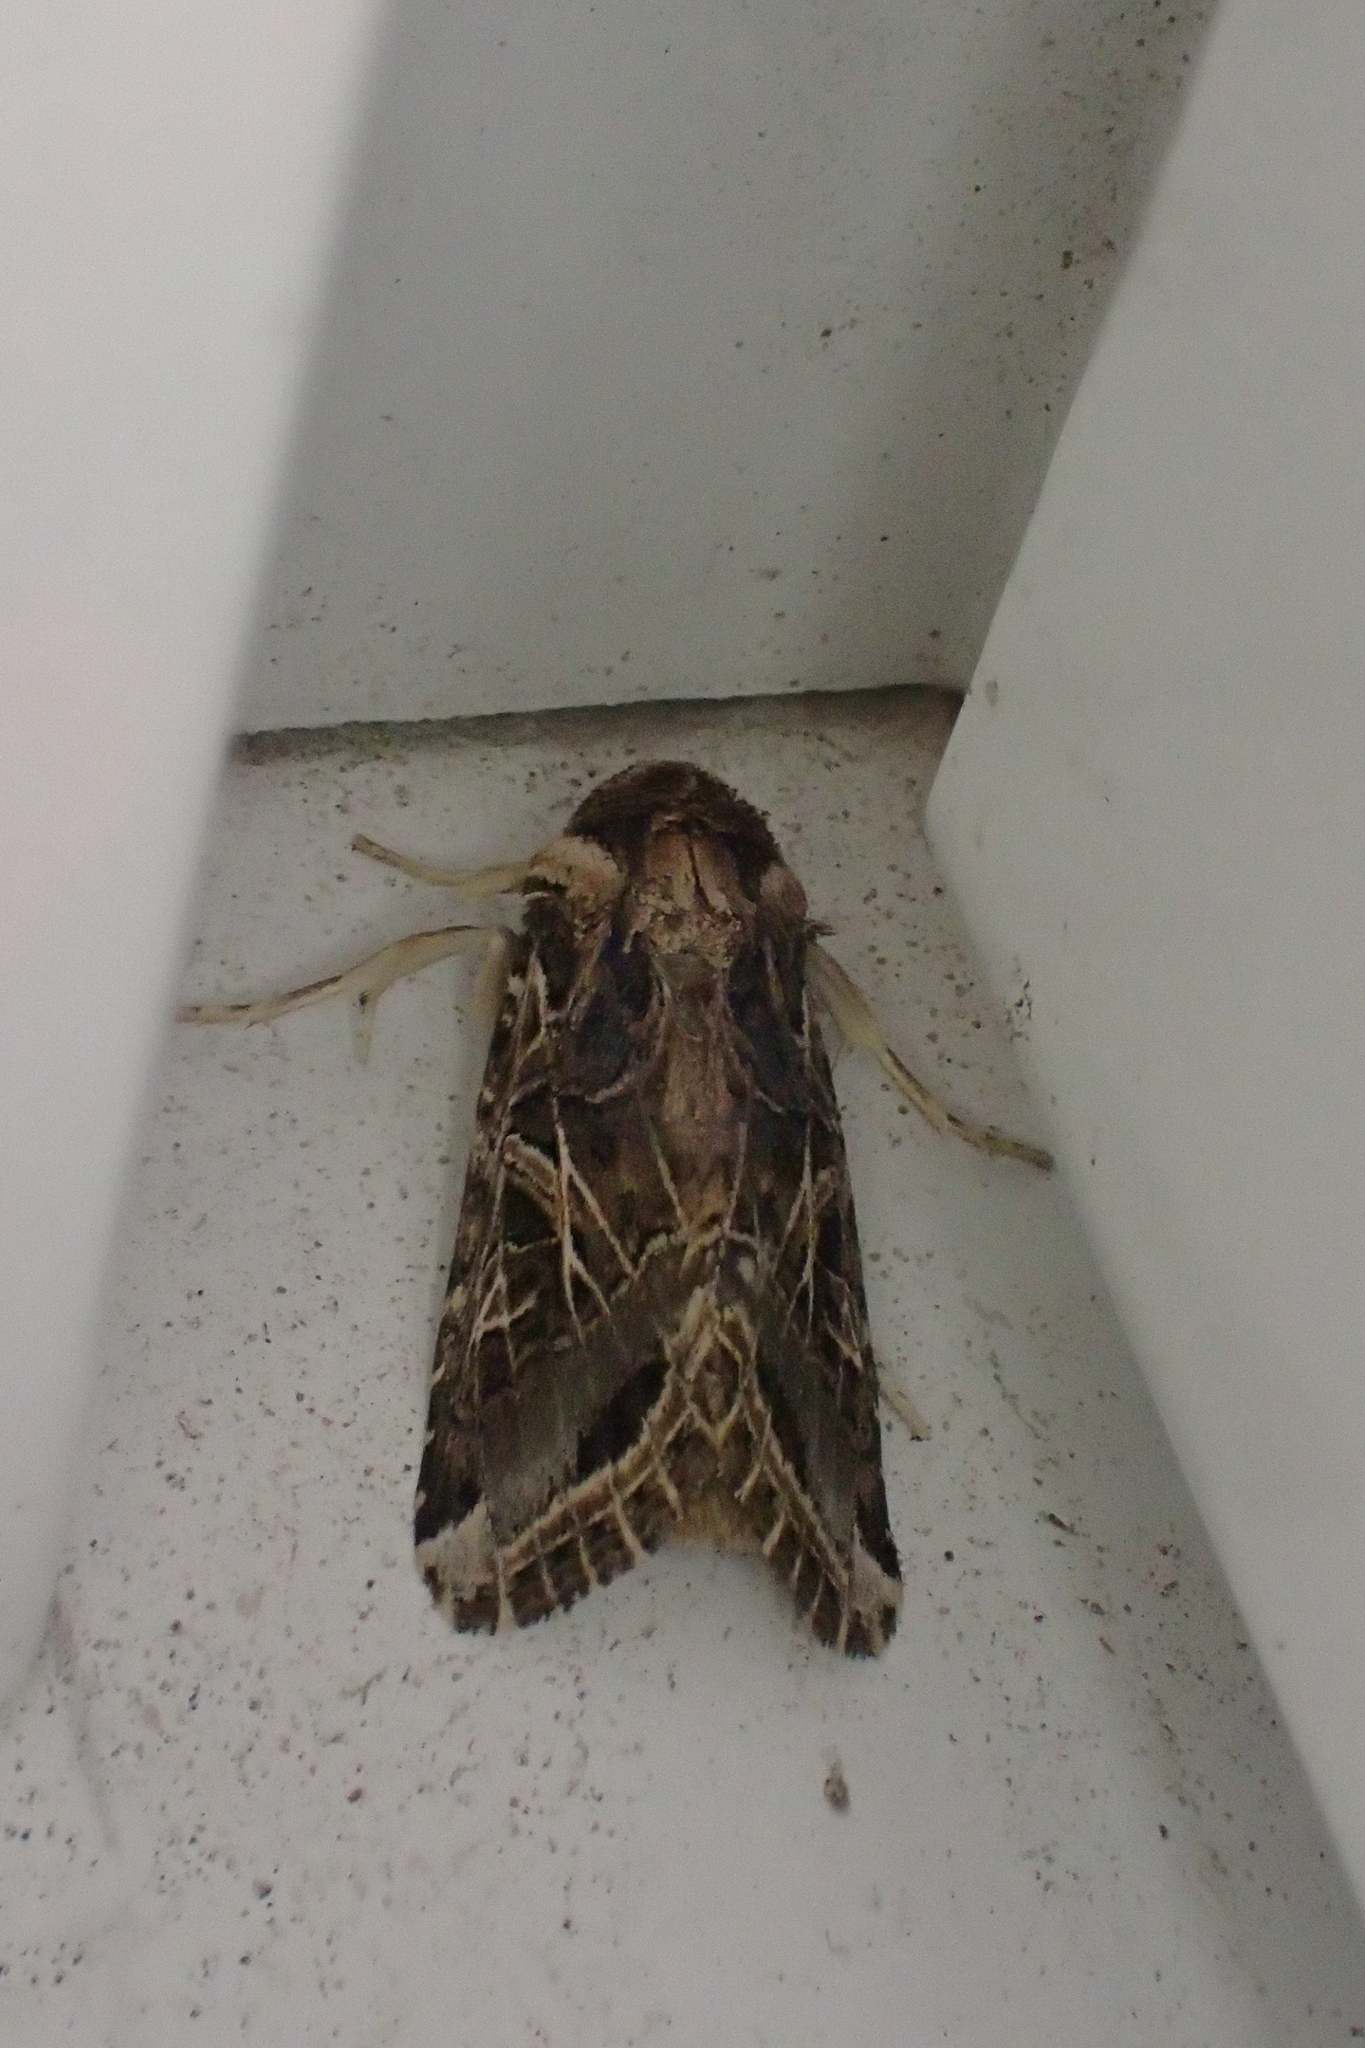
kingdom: Animalia
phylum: Arthropoda
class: Insecta
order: Lepidoptera
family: Noctuidae
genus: Spodoptera
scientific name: Spodoptera littoralis
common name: Egyptian cotton leafworm
